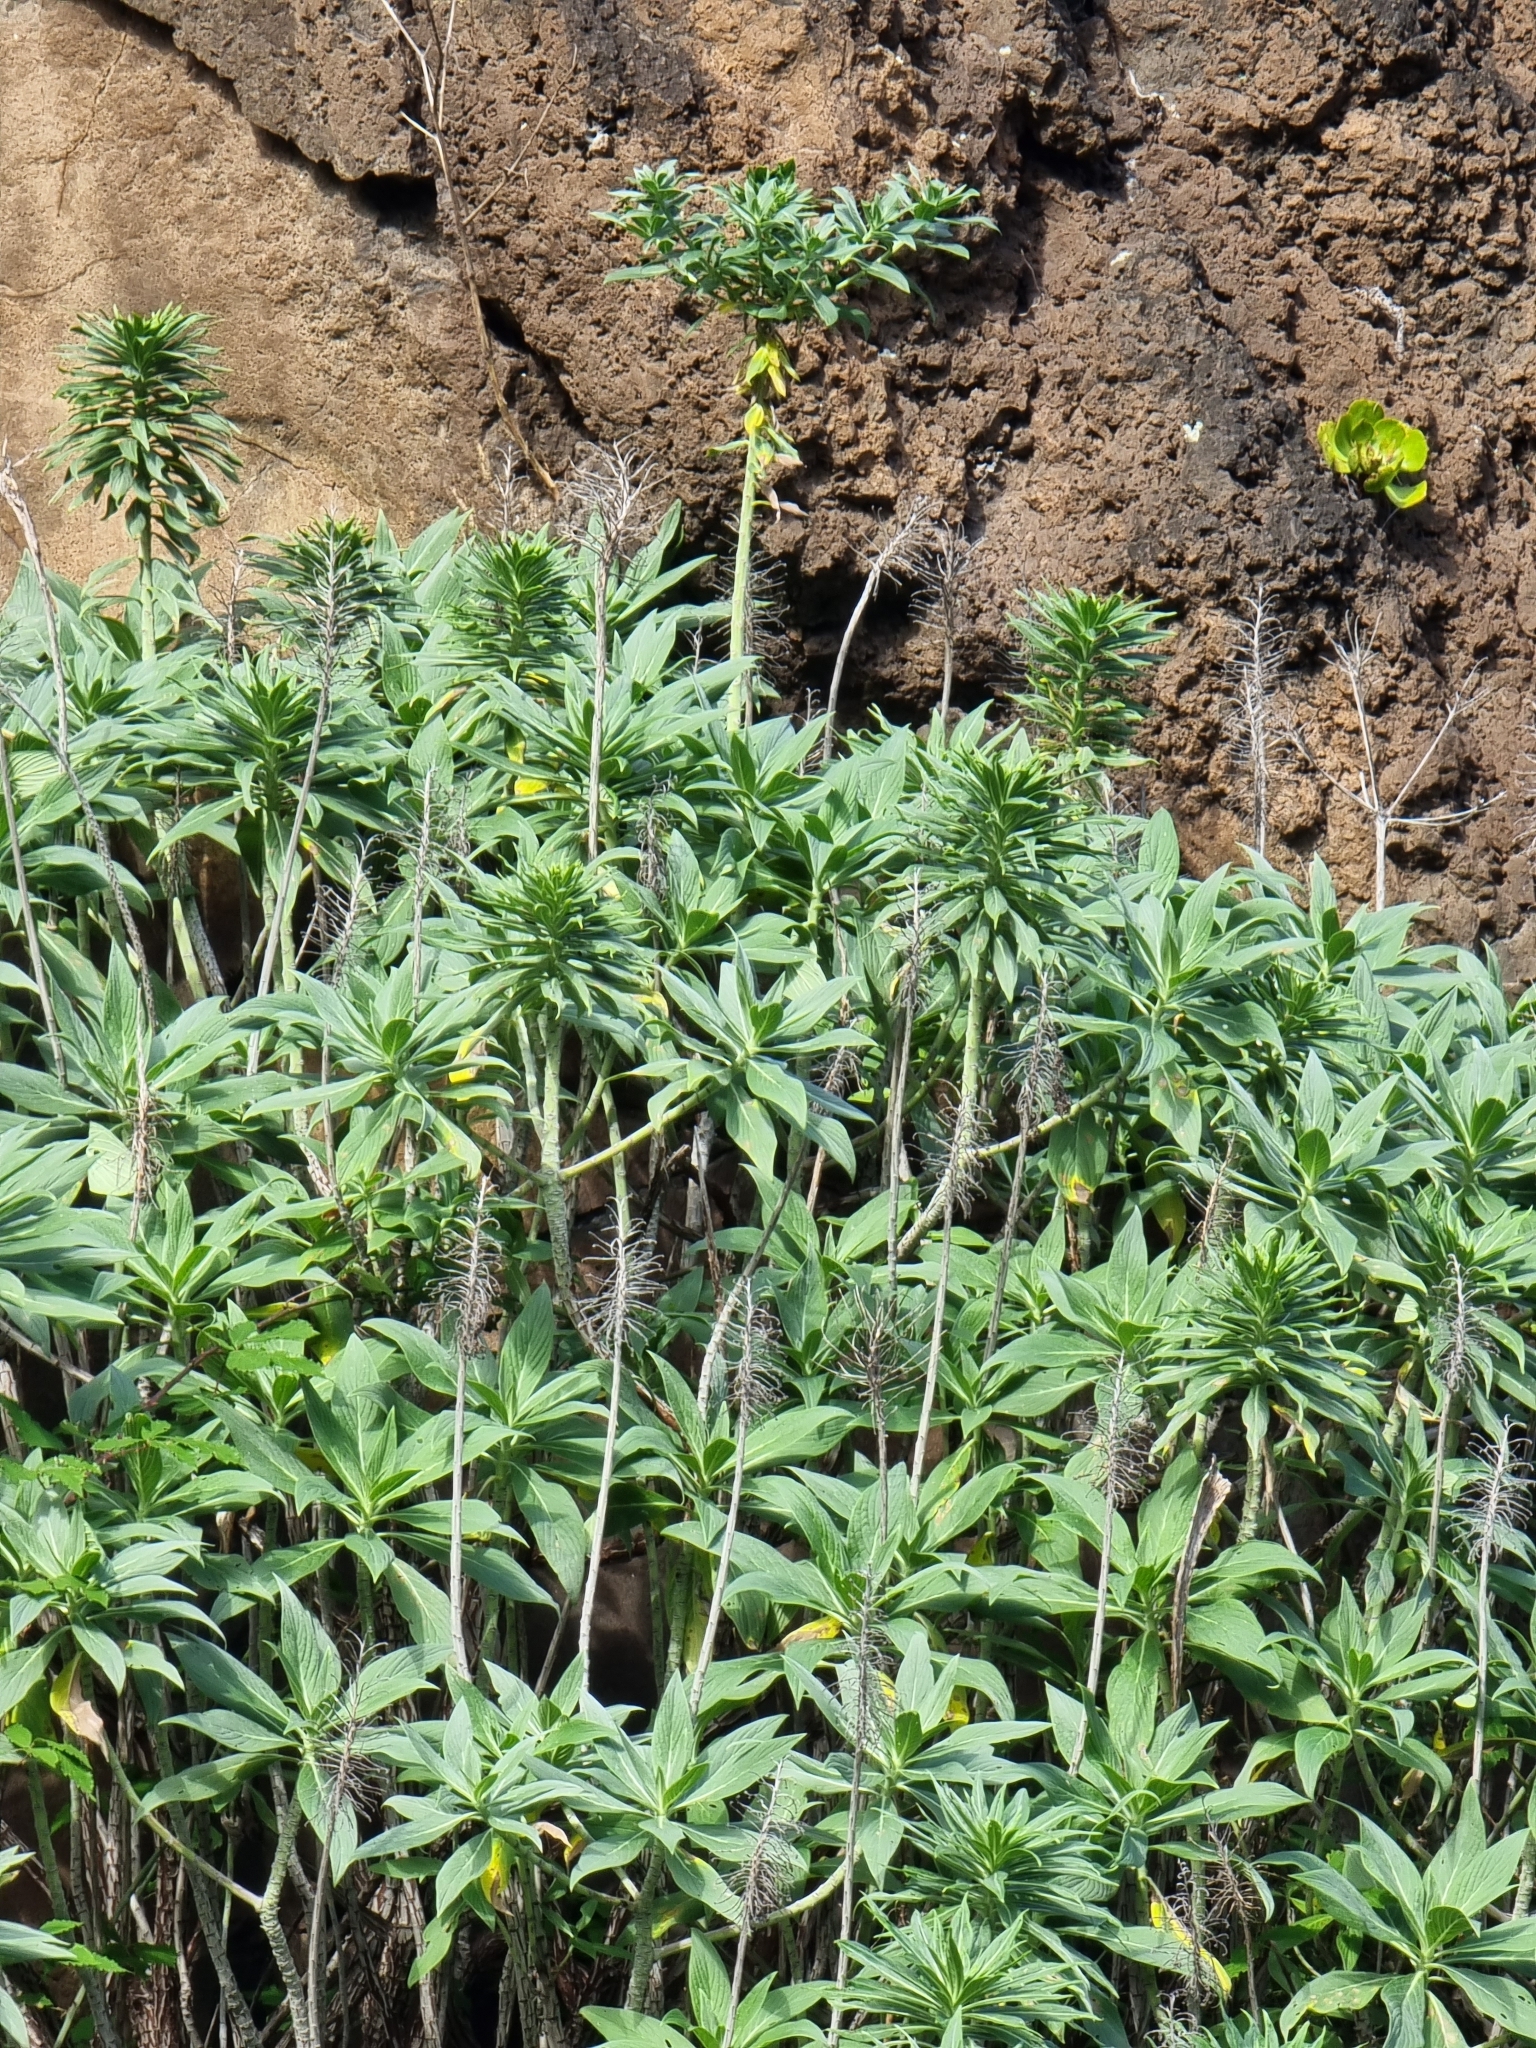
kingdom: Plantae
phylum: Tracheophyta
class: Magnoliopsida
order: Boraginales
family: Boraginaceae
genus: Echium
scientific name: Echium nervosum
